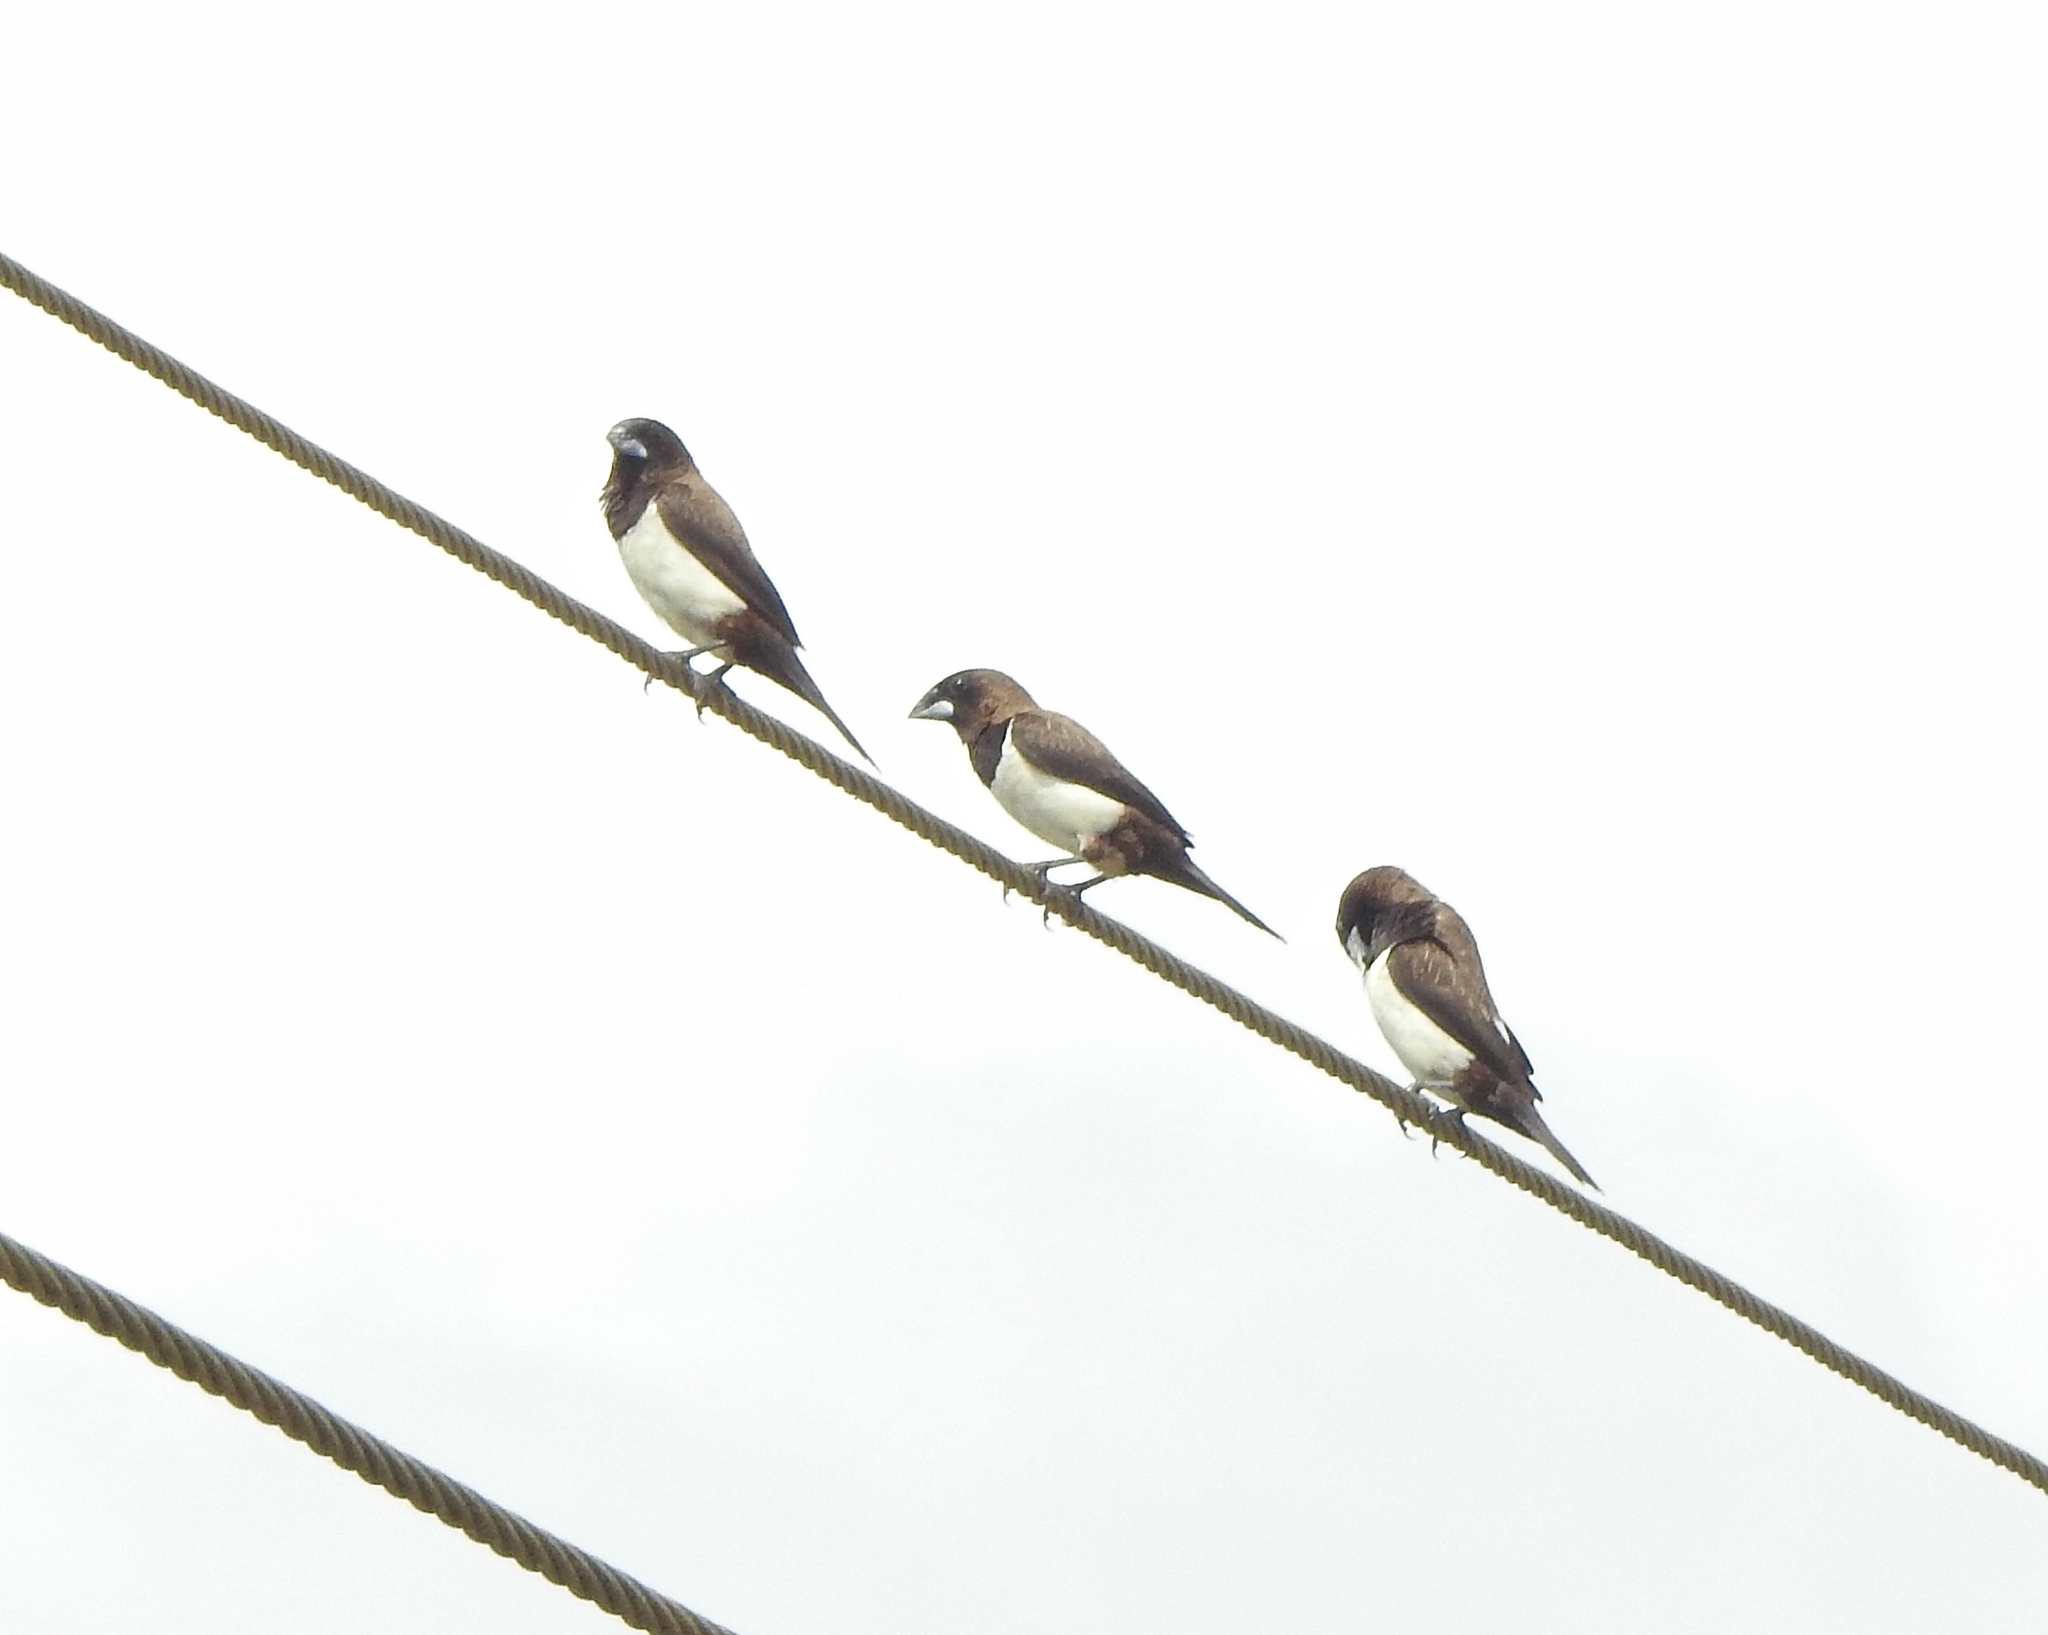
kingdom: Animalia
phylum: Chordata
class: Aves
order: Passeriformes
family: Estrildidae
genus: Lonchura
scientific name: Lonchura striata
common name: White-rumped munia
